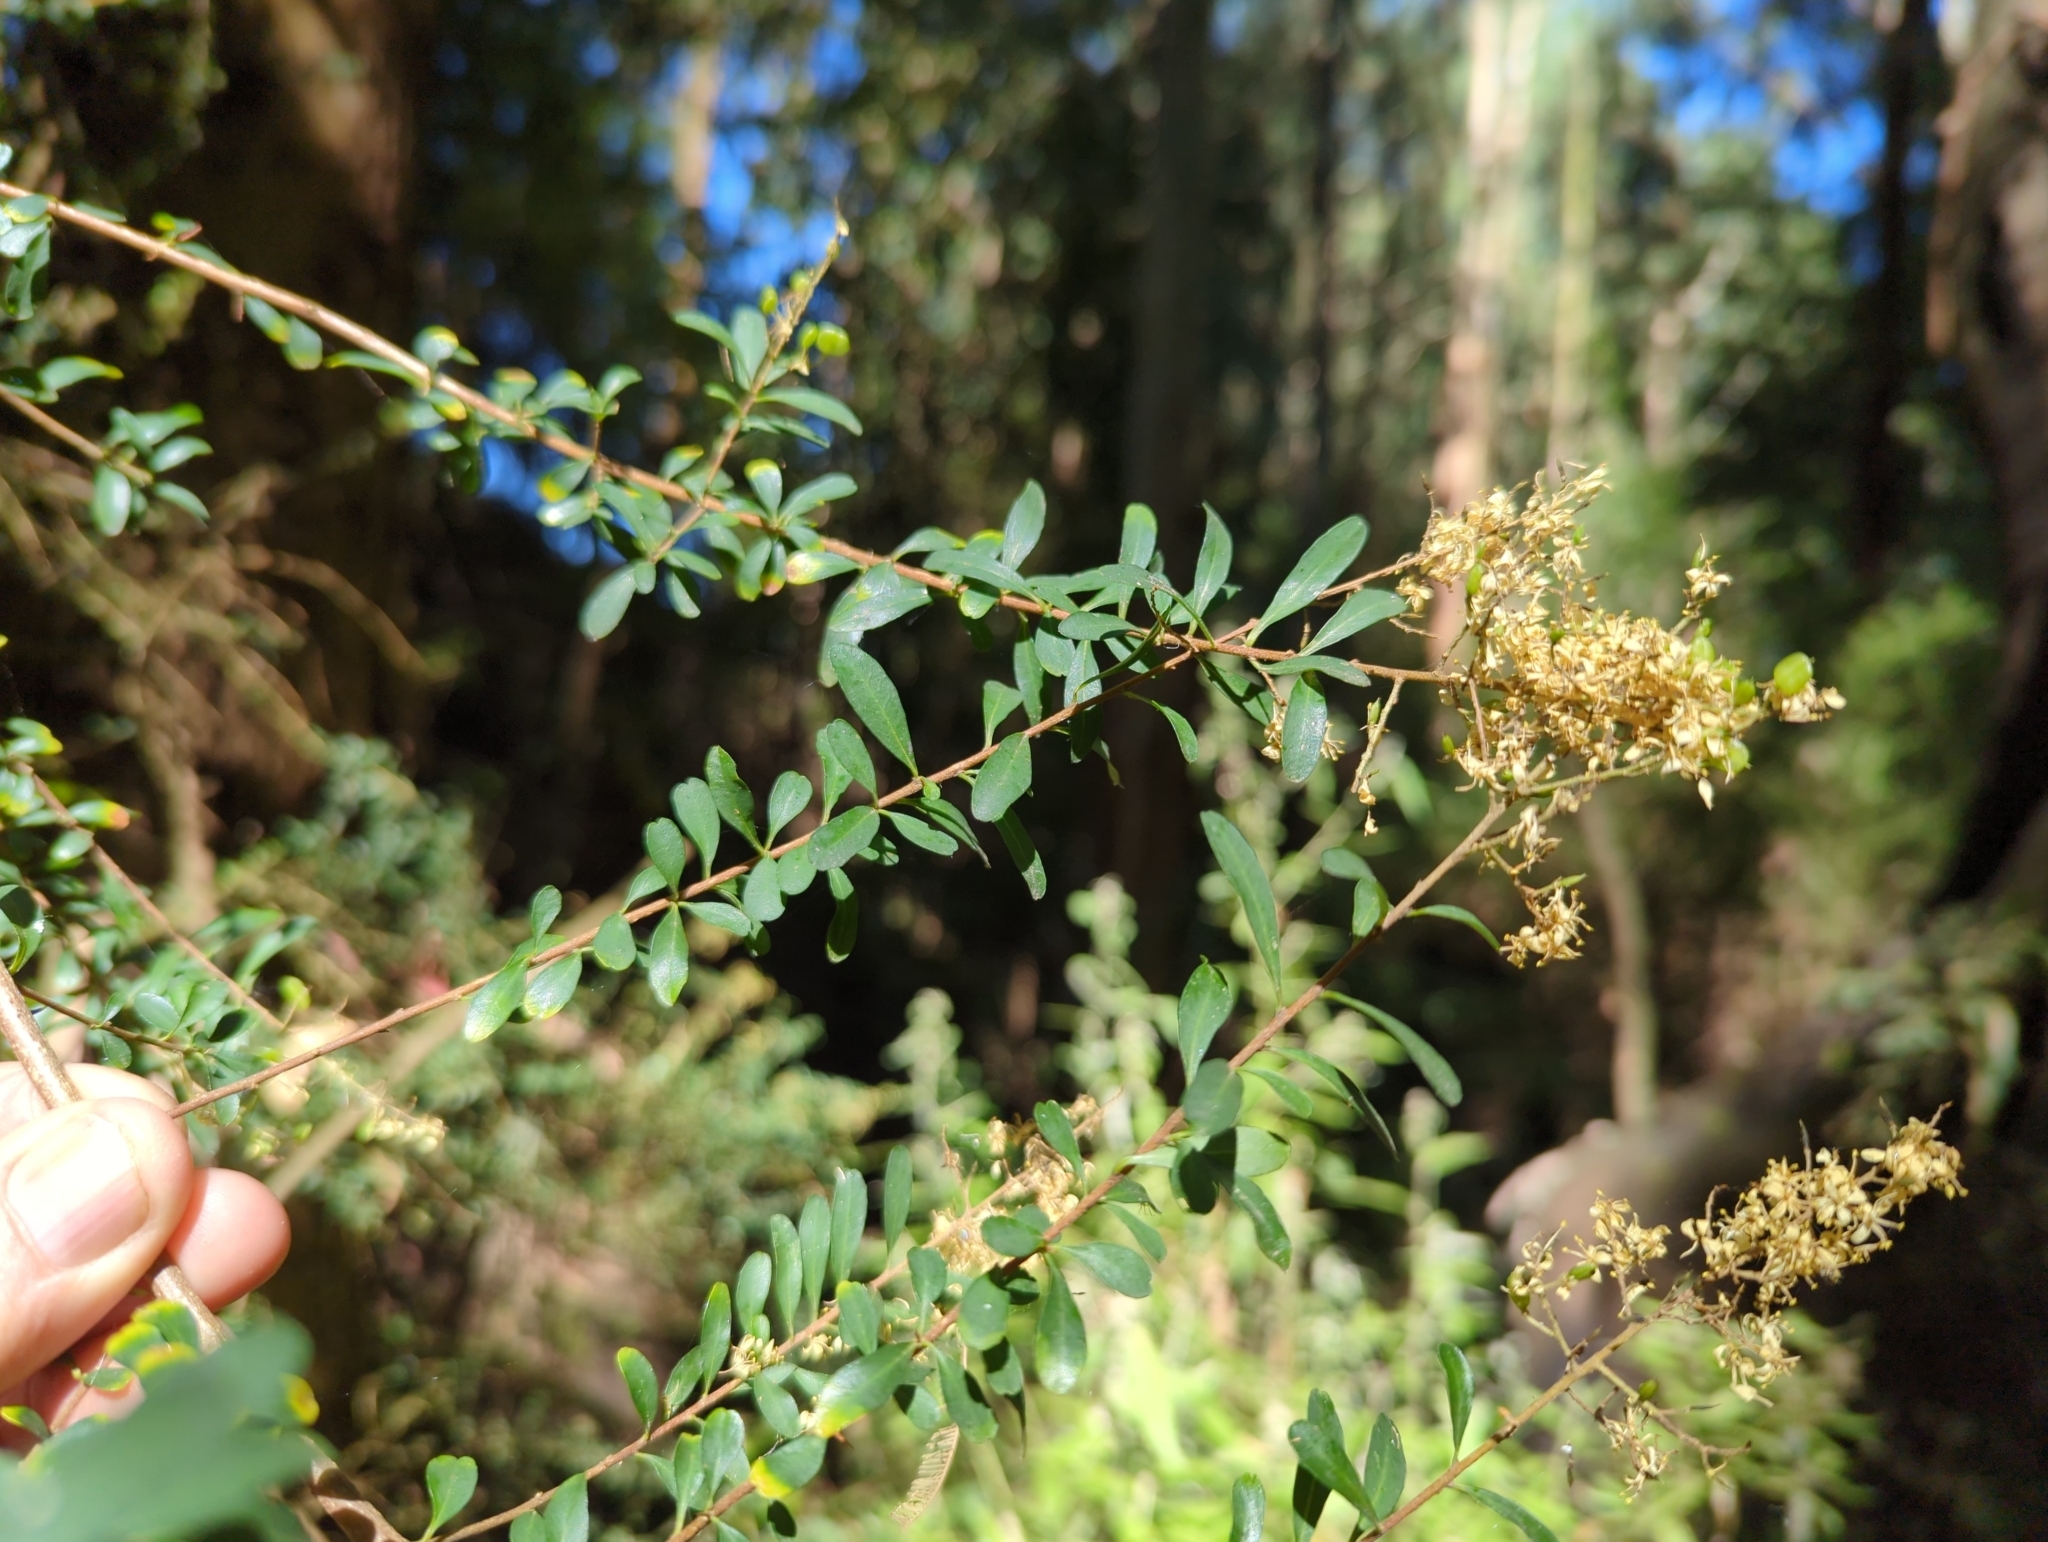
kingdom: Plantae
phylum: Tracheophyta
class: Magnoliopsida
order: Apiales
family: Pittosporaceae
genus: Bursaria
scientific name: Bursaria spinosa
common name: Australian blackthorn
